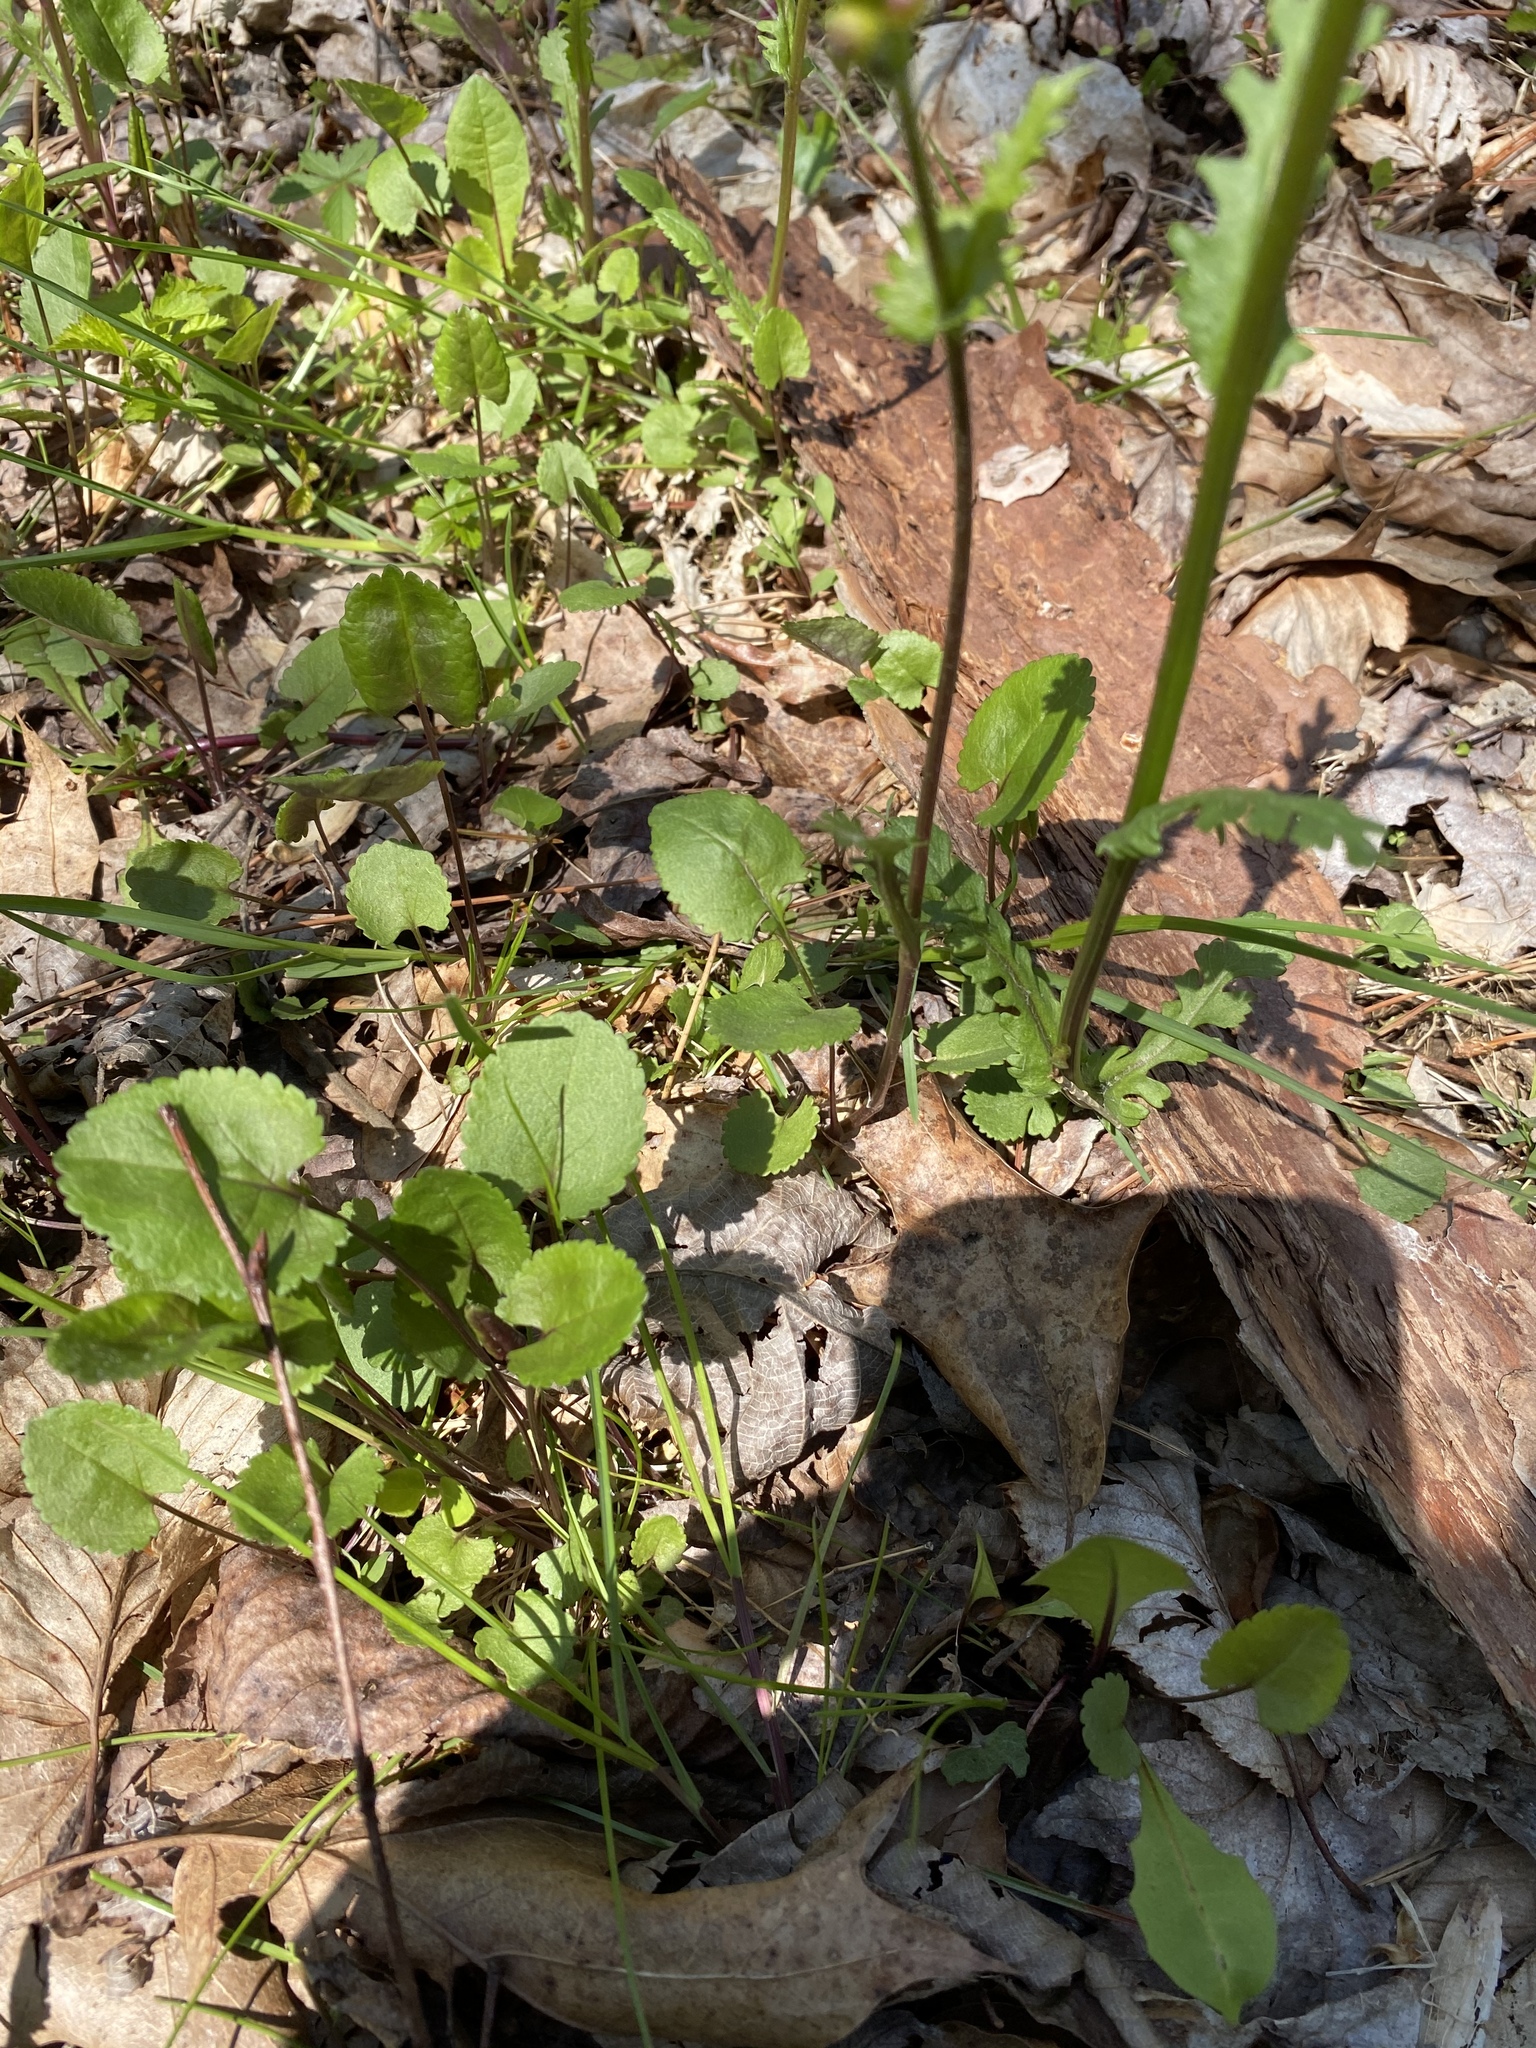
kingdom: Plantae
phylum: Tracheophyta
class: Magnoliopsida
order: Asterales
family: Asteraceae
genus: Packera
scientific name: Packera aurea
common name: Golden groundsel
